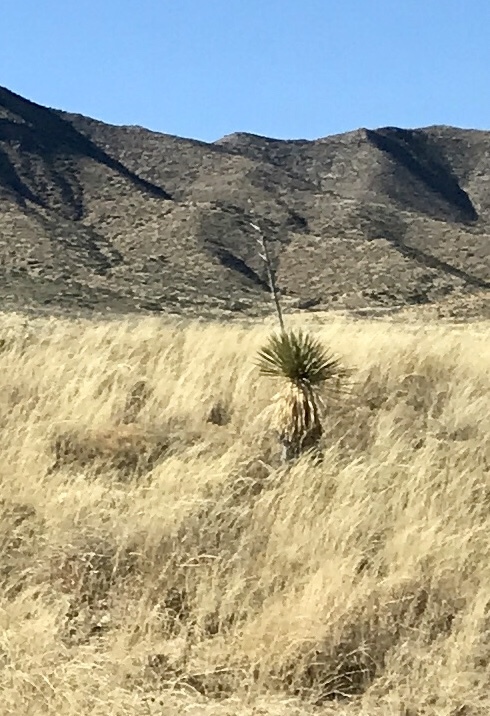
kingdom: Plantae
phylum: Tracheophyta
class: Liliopsida
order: Asparagales
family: Asparagaceae
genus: Yucca
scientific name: Yucca elata
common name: Palmella
